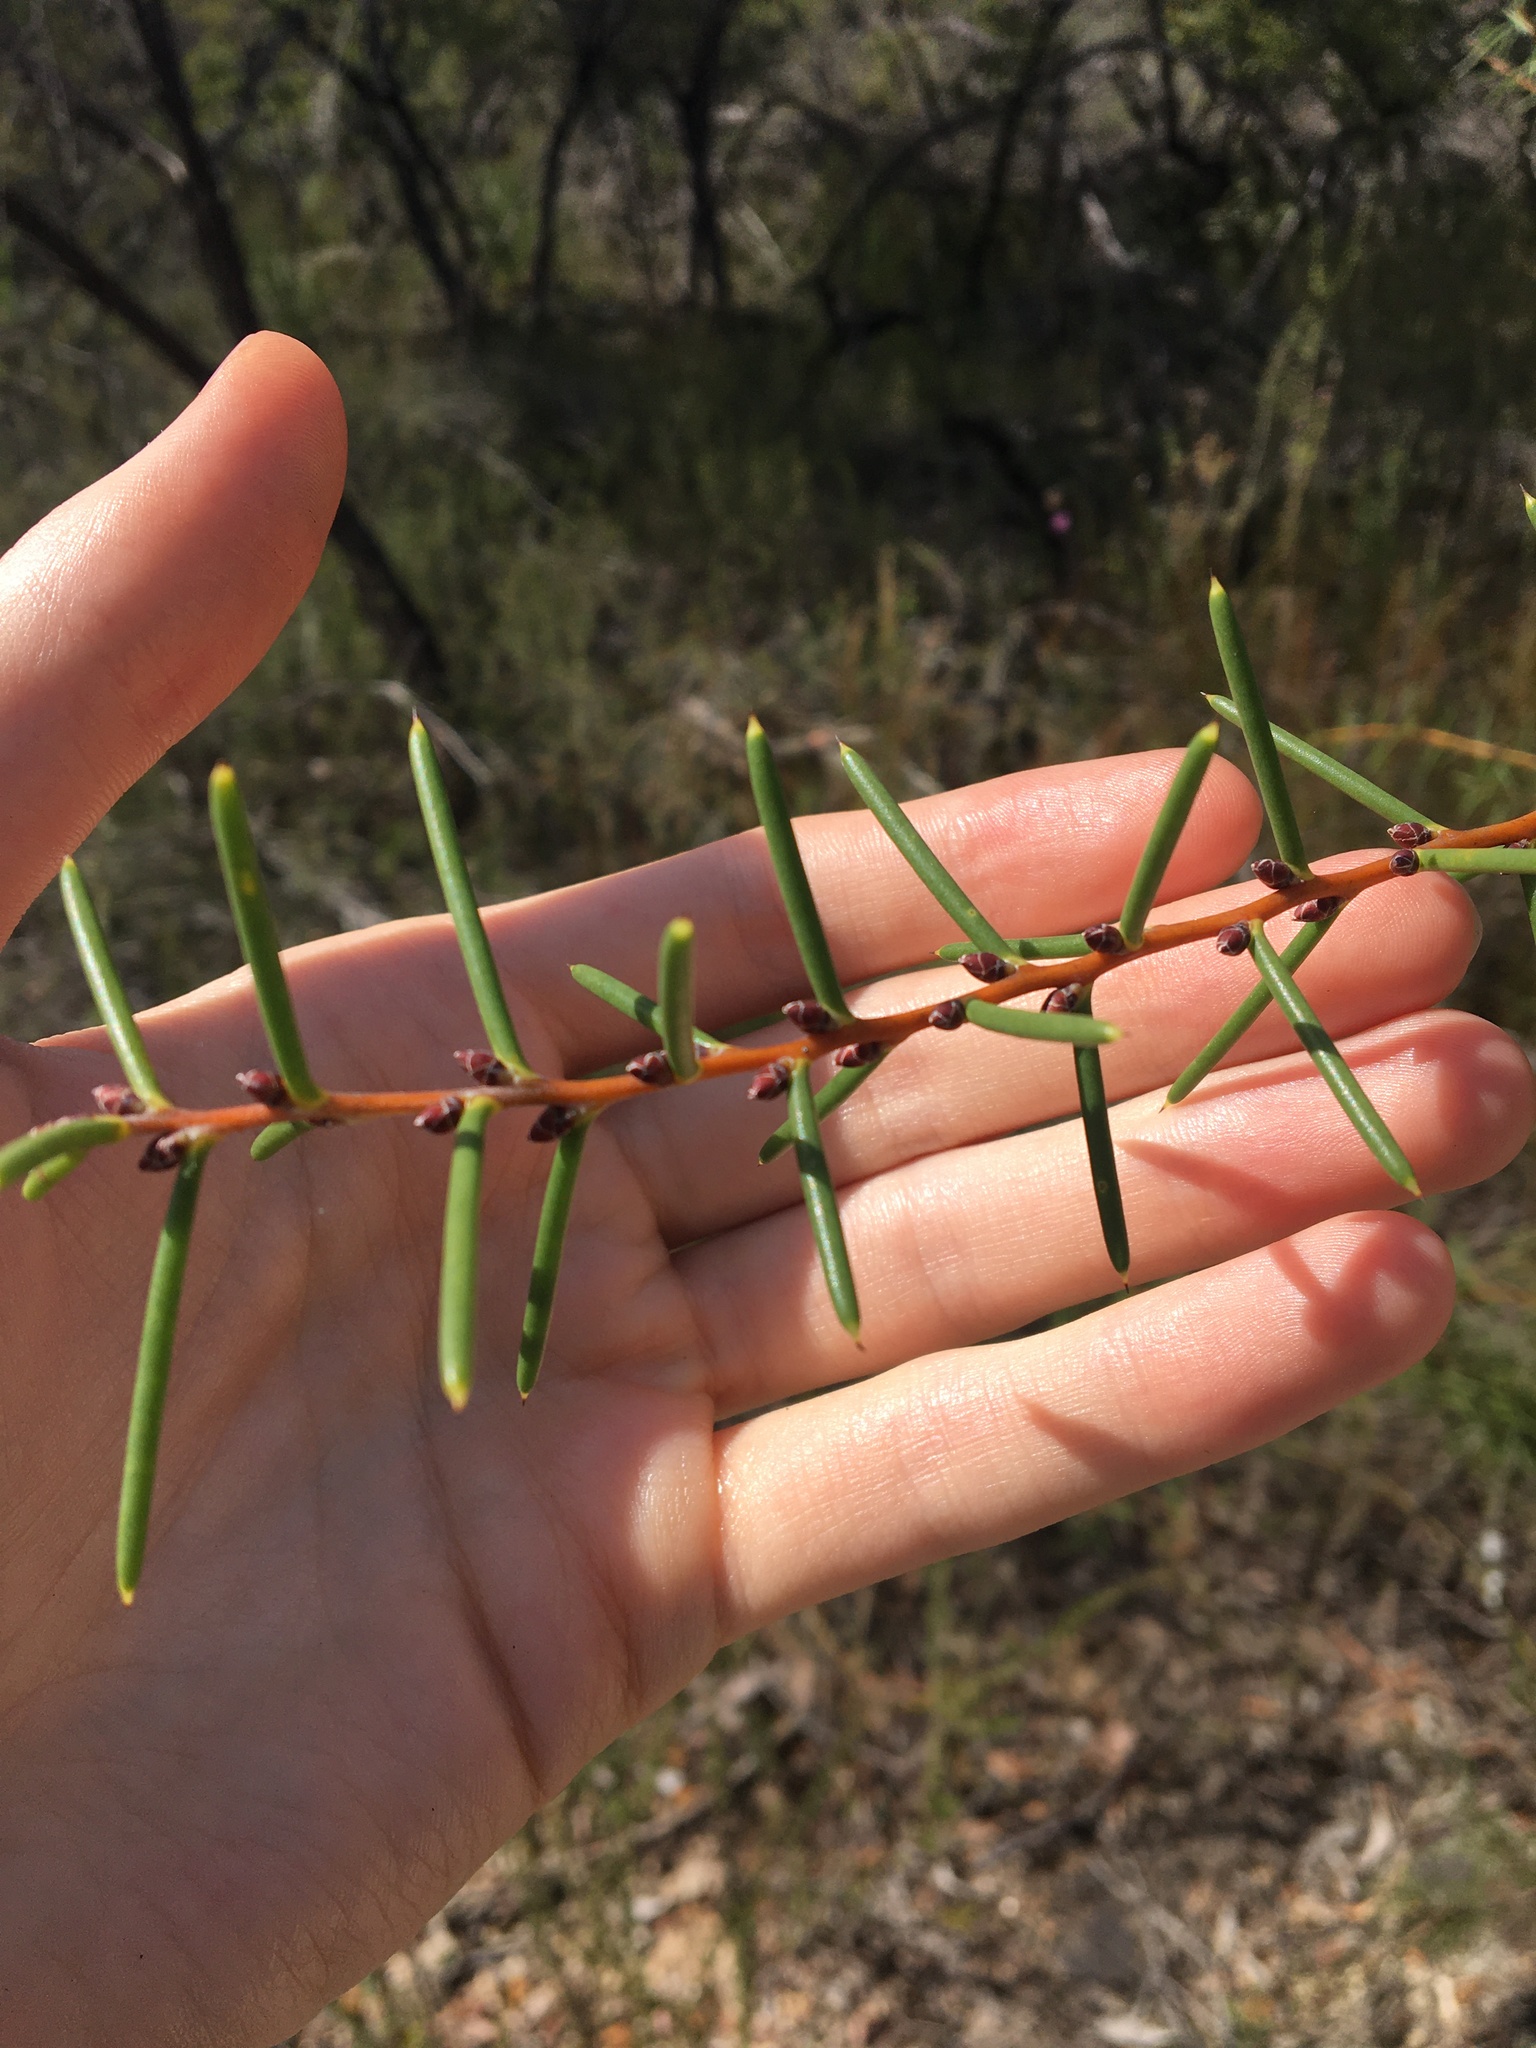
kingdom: Plantae
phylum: Tracheophyta
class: Magnoliopsida
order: Proteales
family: Proteaceae
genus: Hakea
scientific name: Hakea teretifolia
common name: Dagger hakea
